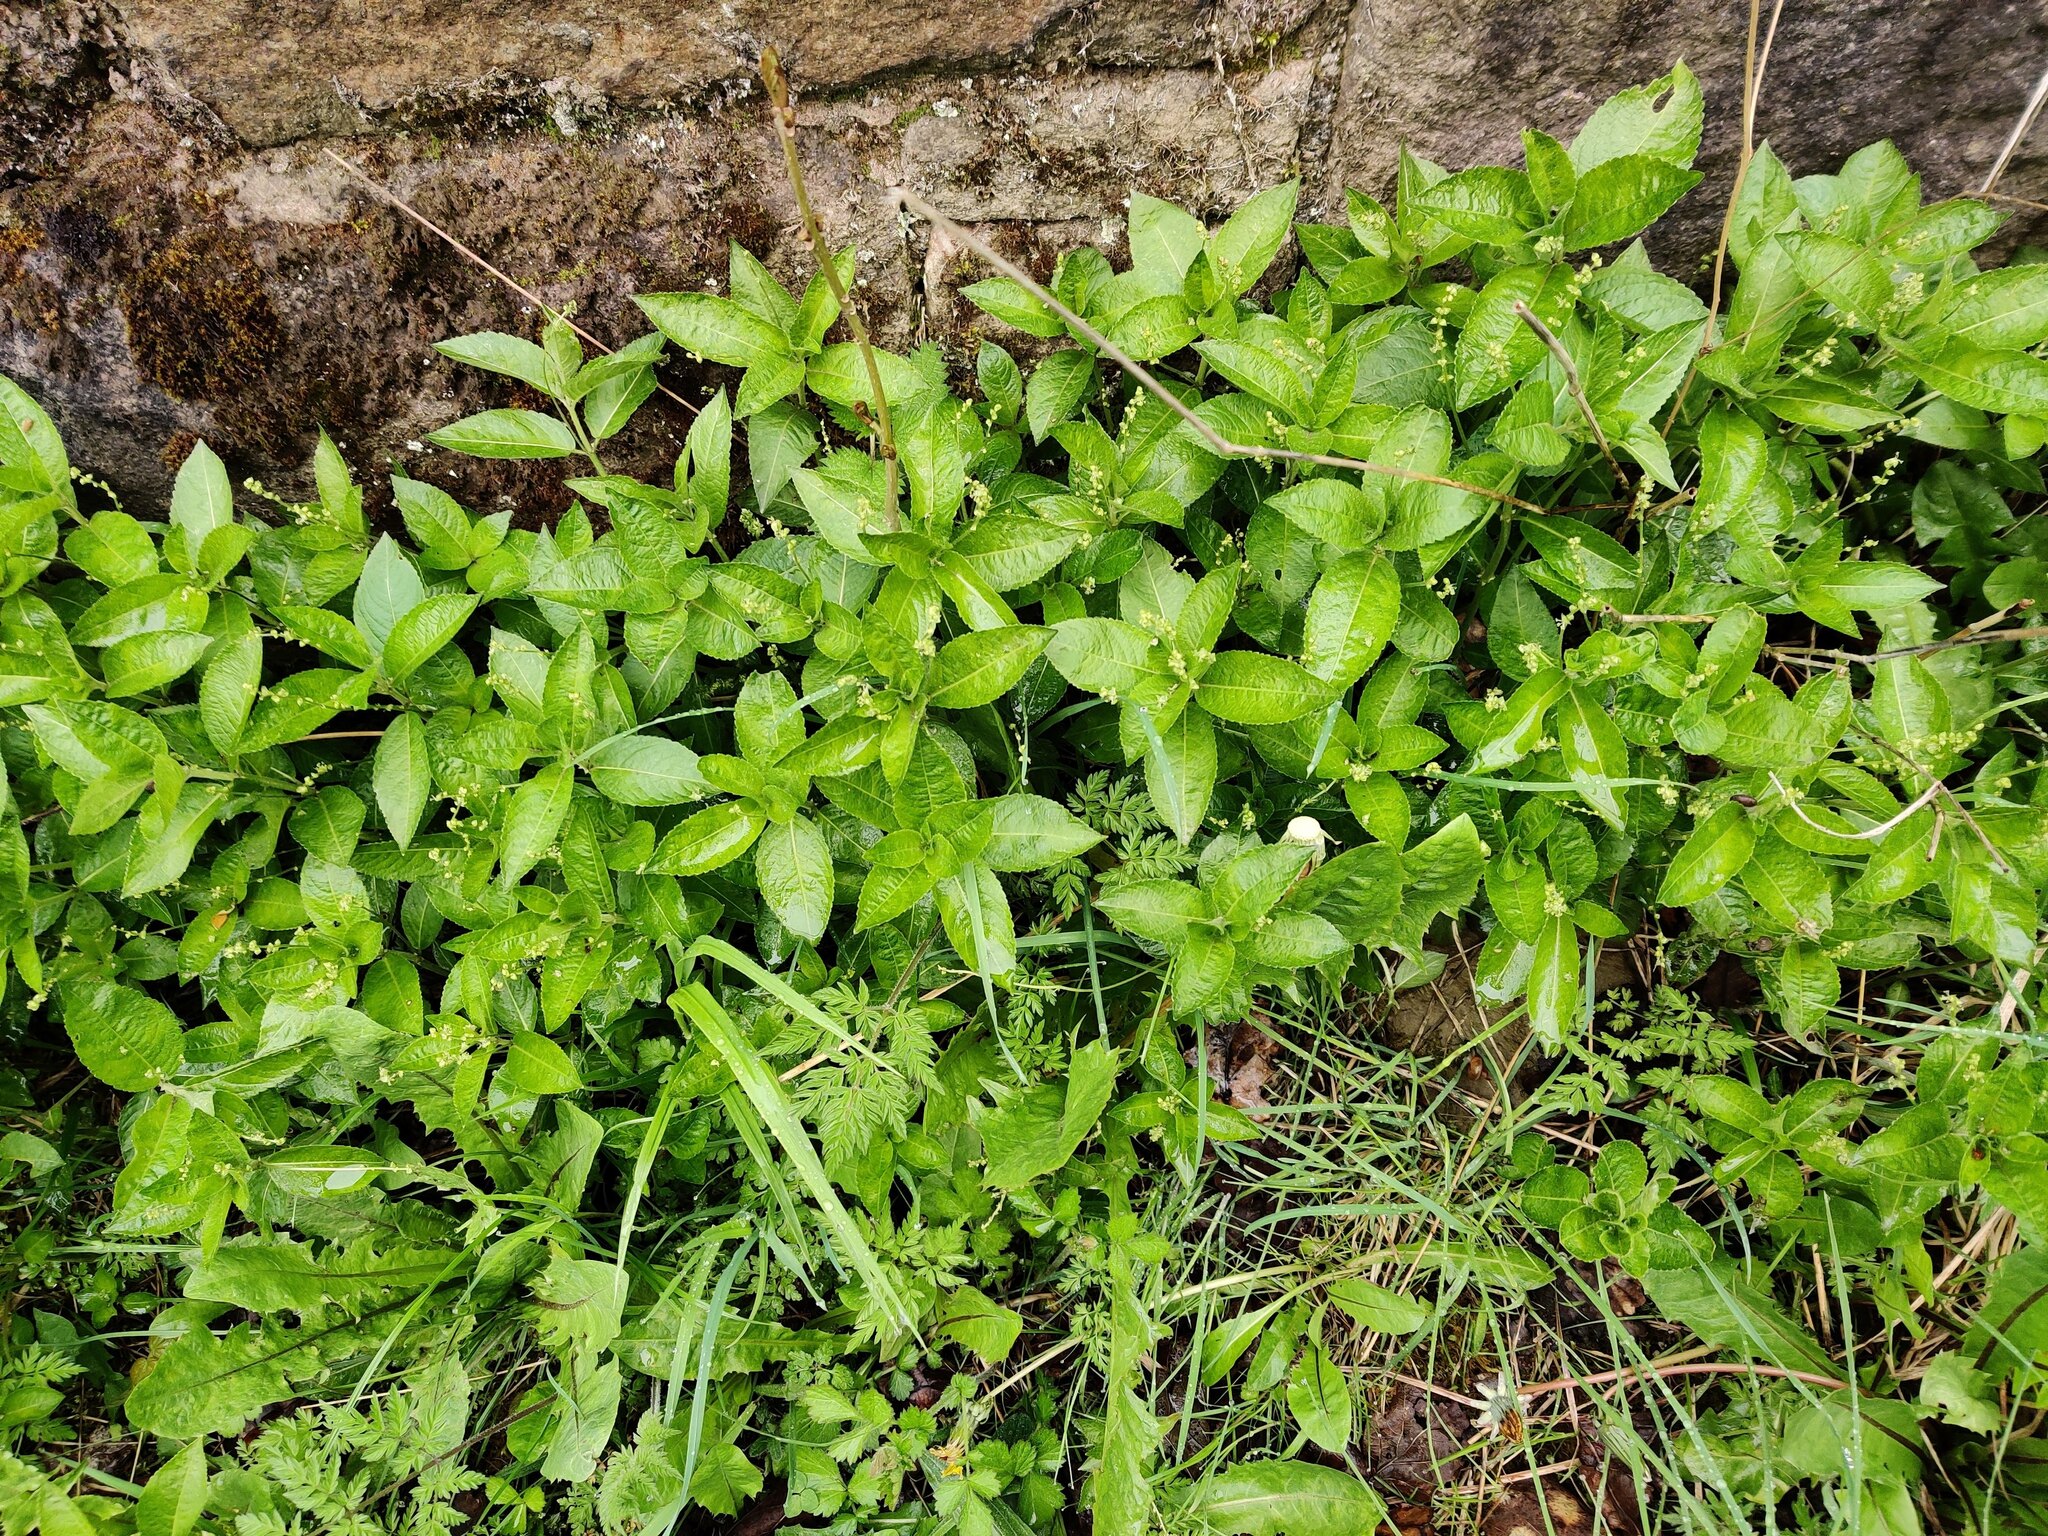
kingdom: Plantae
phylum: Tracheophyta
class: Magnoliopsida
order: Malpighiales
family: Euphorbiaceae
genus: Mercurialis
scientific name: Mercurialis perennis
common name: Dog mercury
